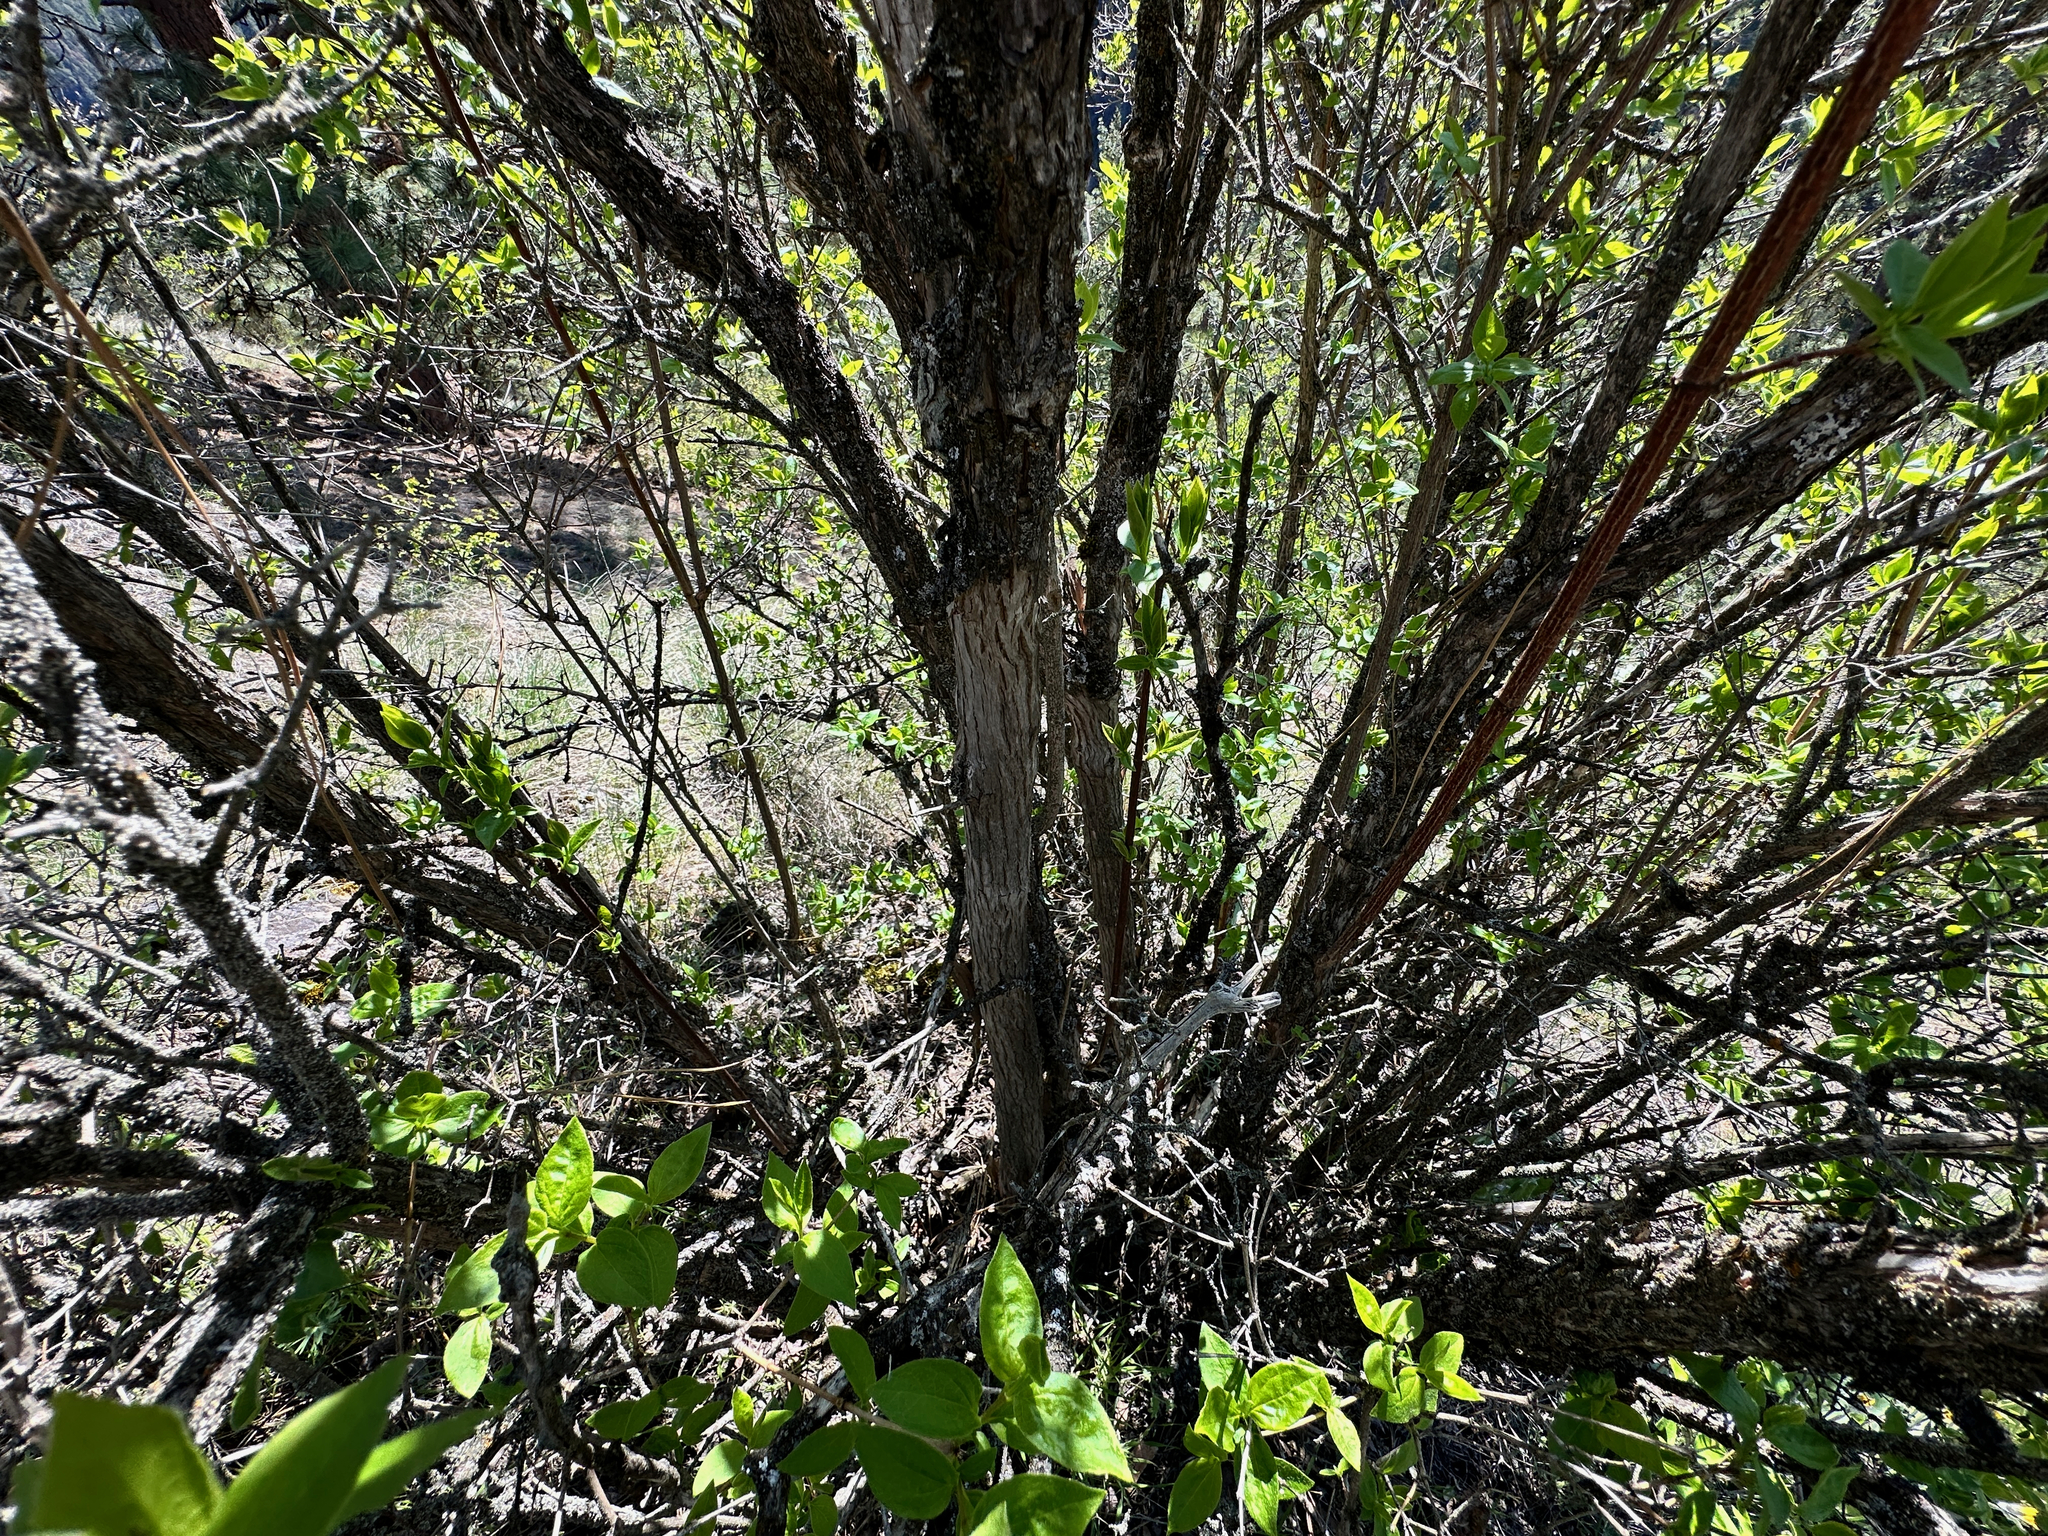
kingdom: Plantae
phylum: Tracheophyta
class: Magnoliopsida
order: Cornales
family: Hydrangeaceae
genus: Philadelphus
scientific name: Philadelphus lewisii
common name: Lewis's mock orange
